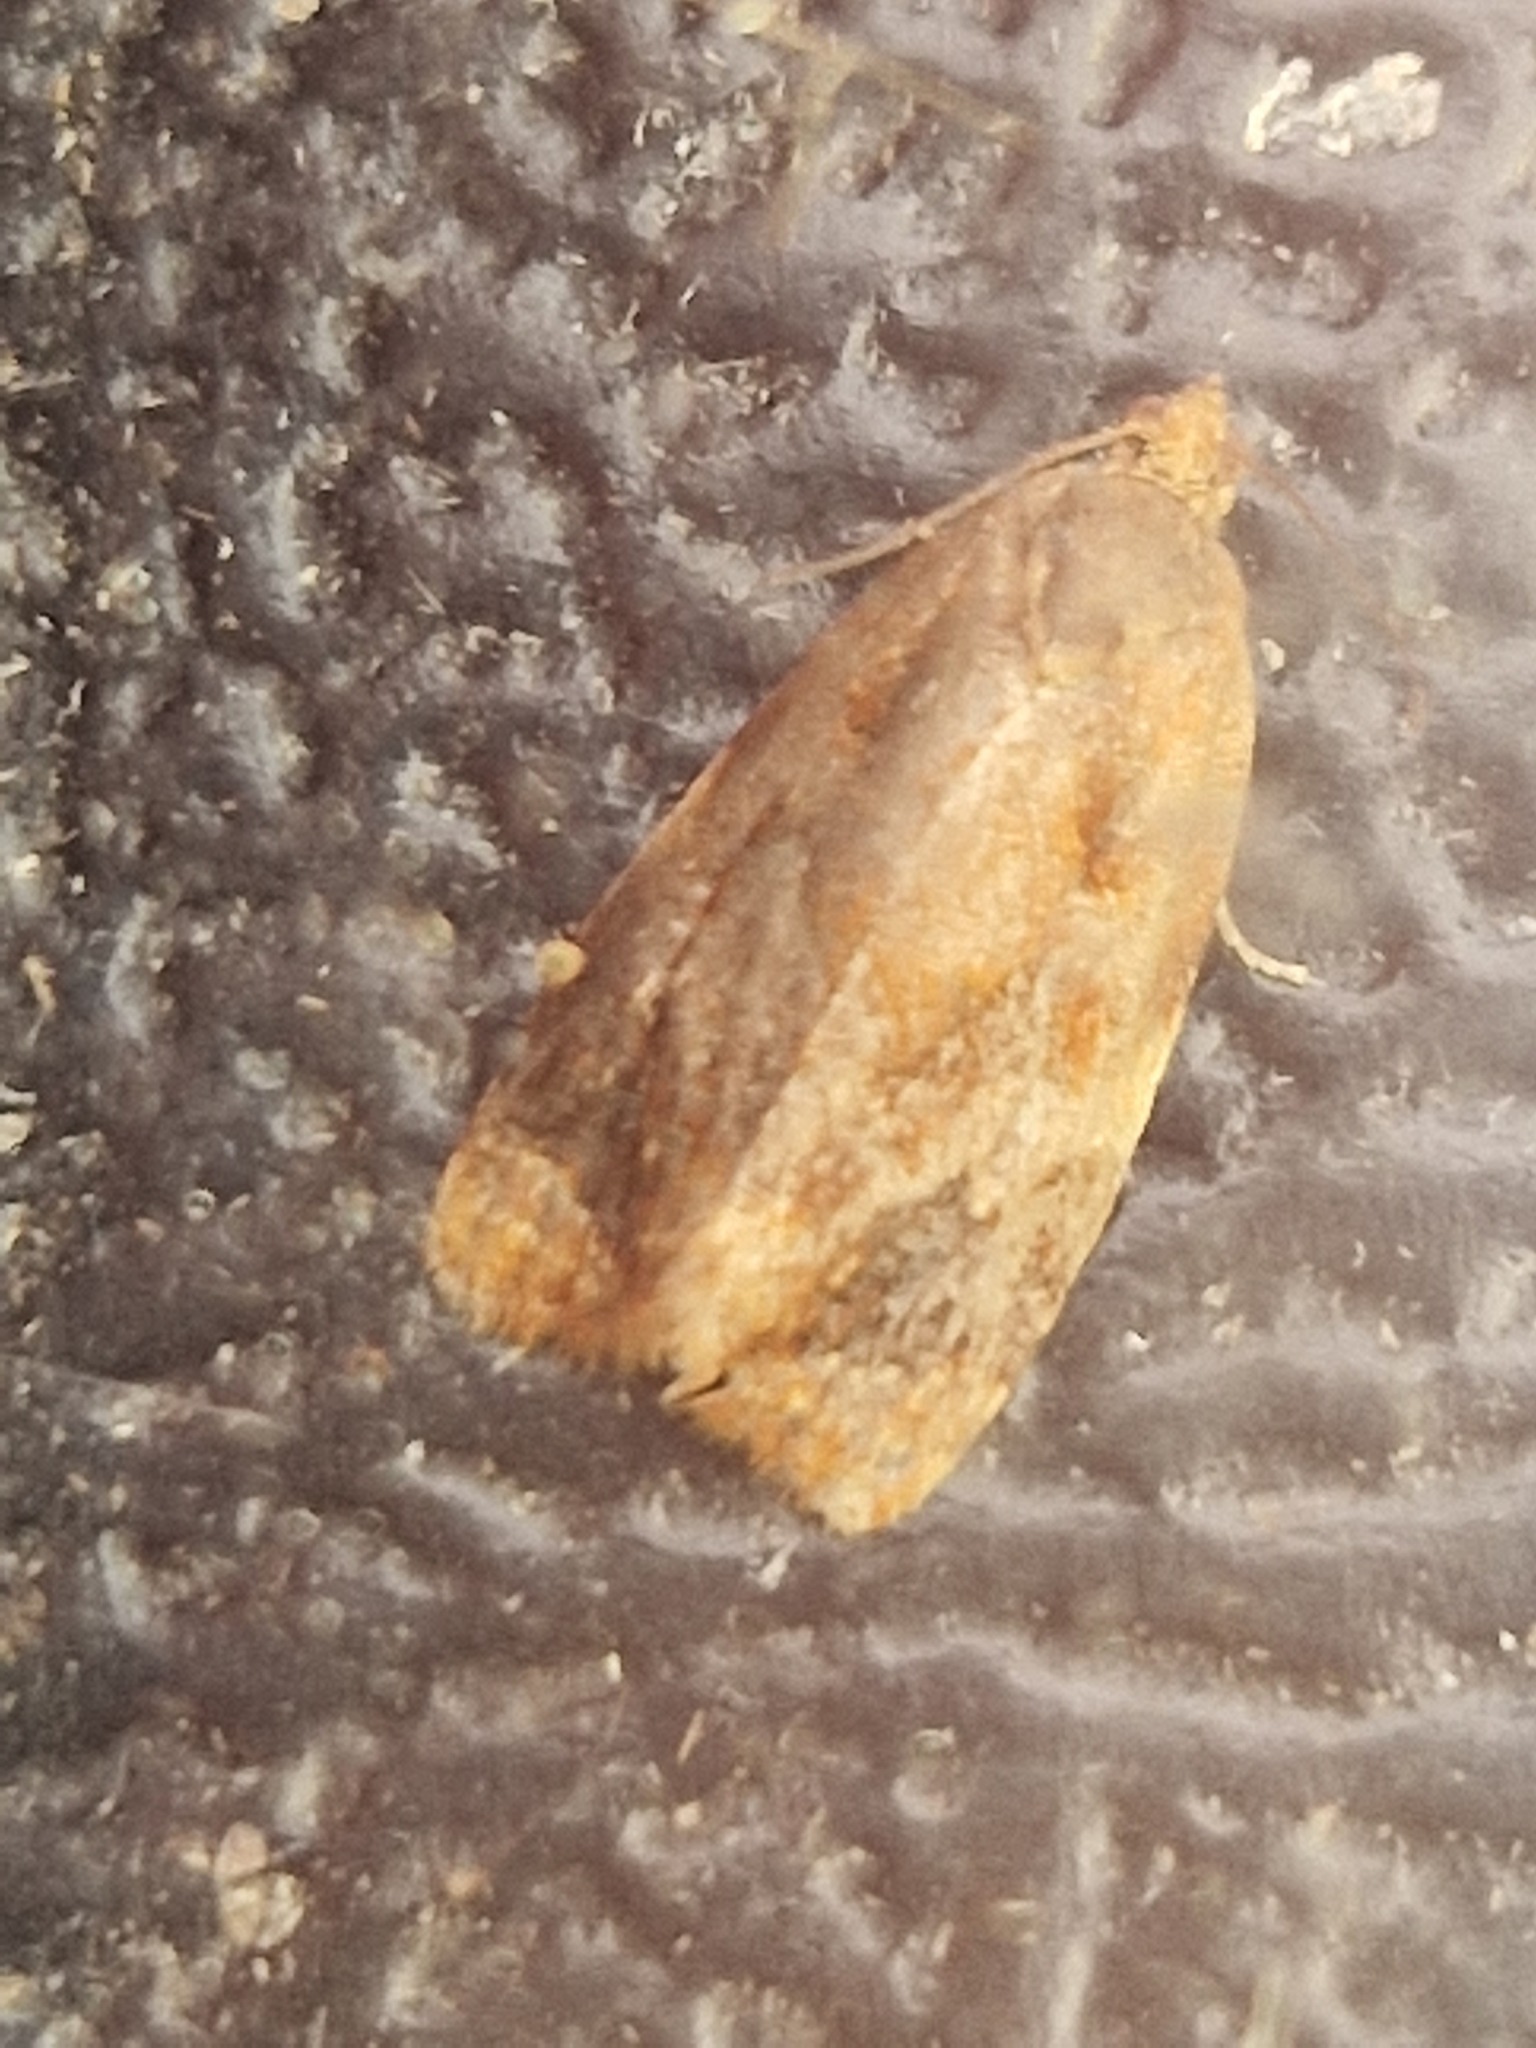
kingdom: Animalia
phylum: Arthropoda
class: Insecta
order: Lepidoptera
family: Tortricidae
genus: Ditula
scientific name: Ditula angustiorana
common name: Red-barred tortrix
